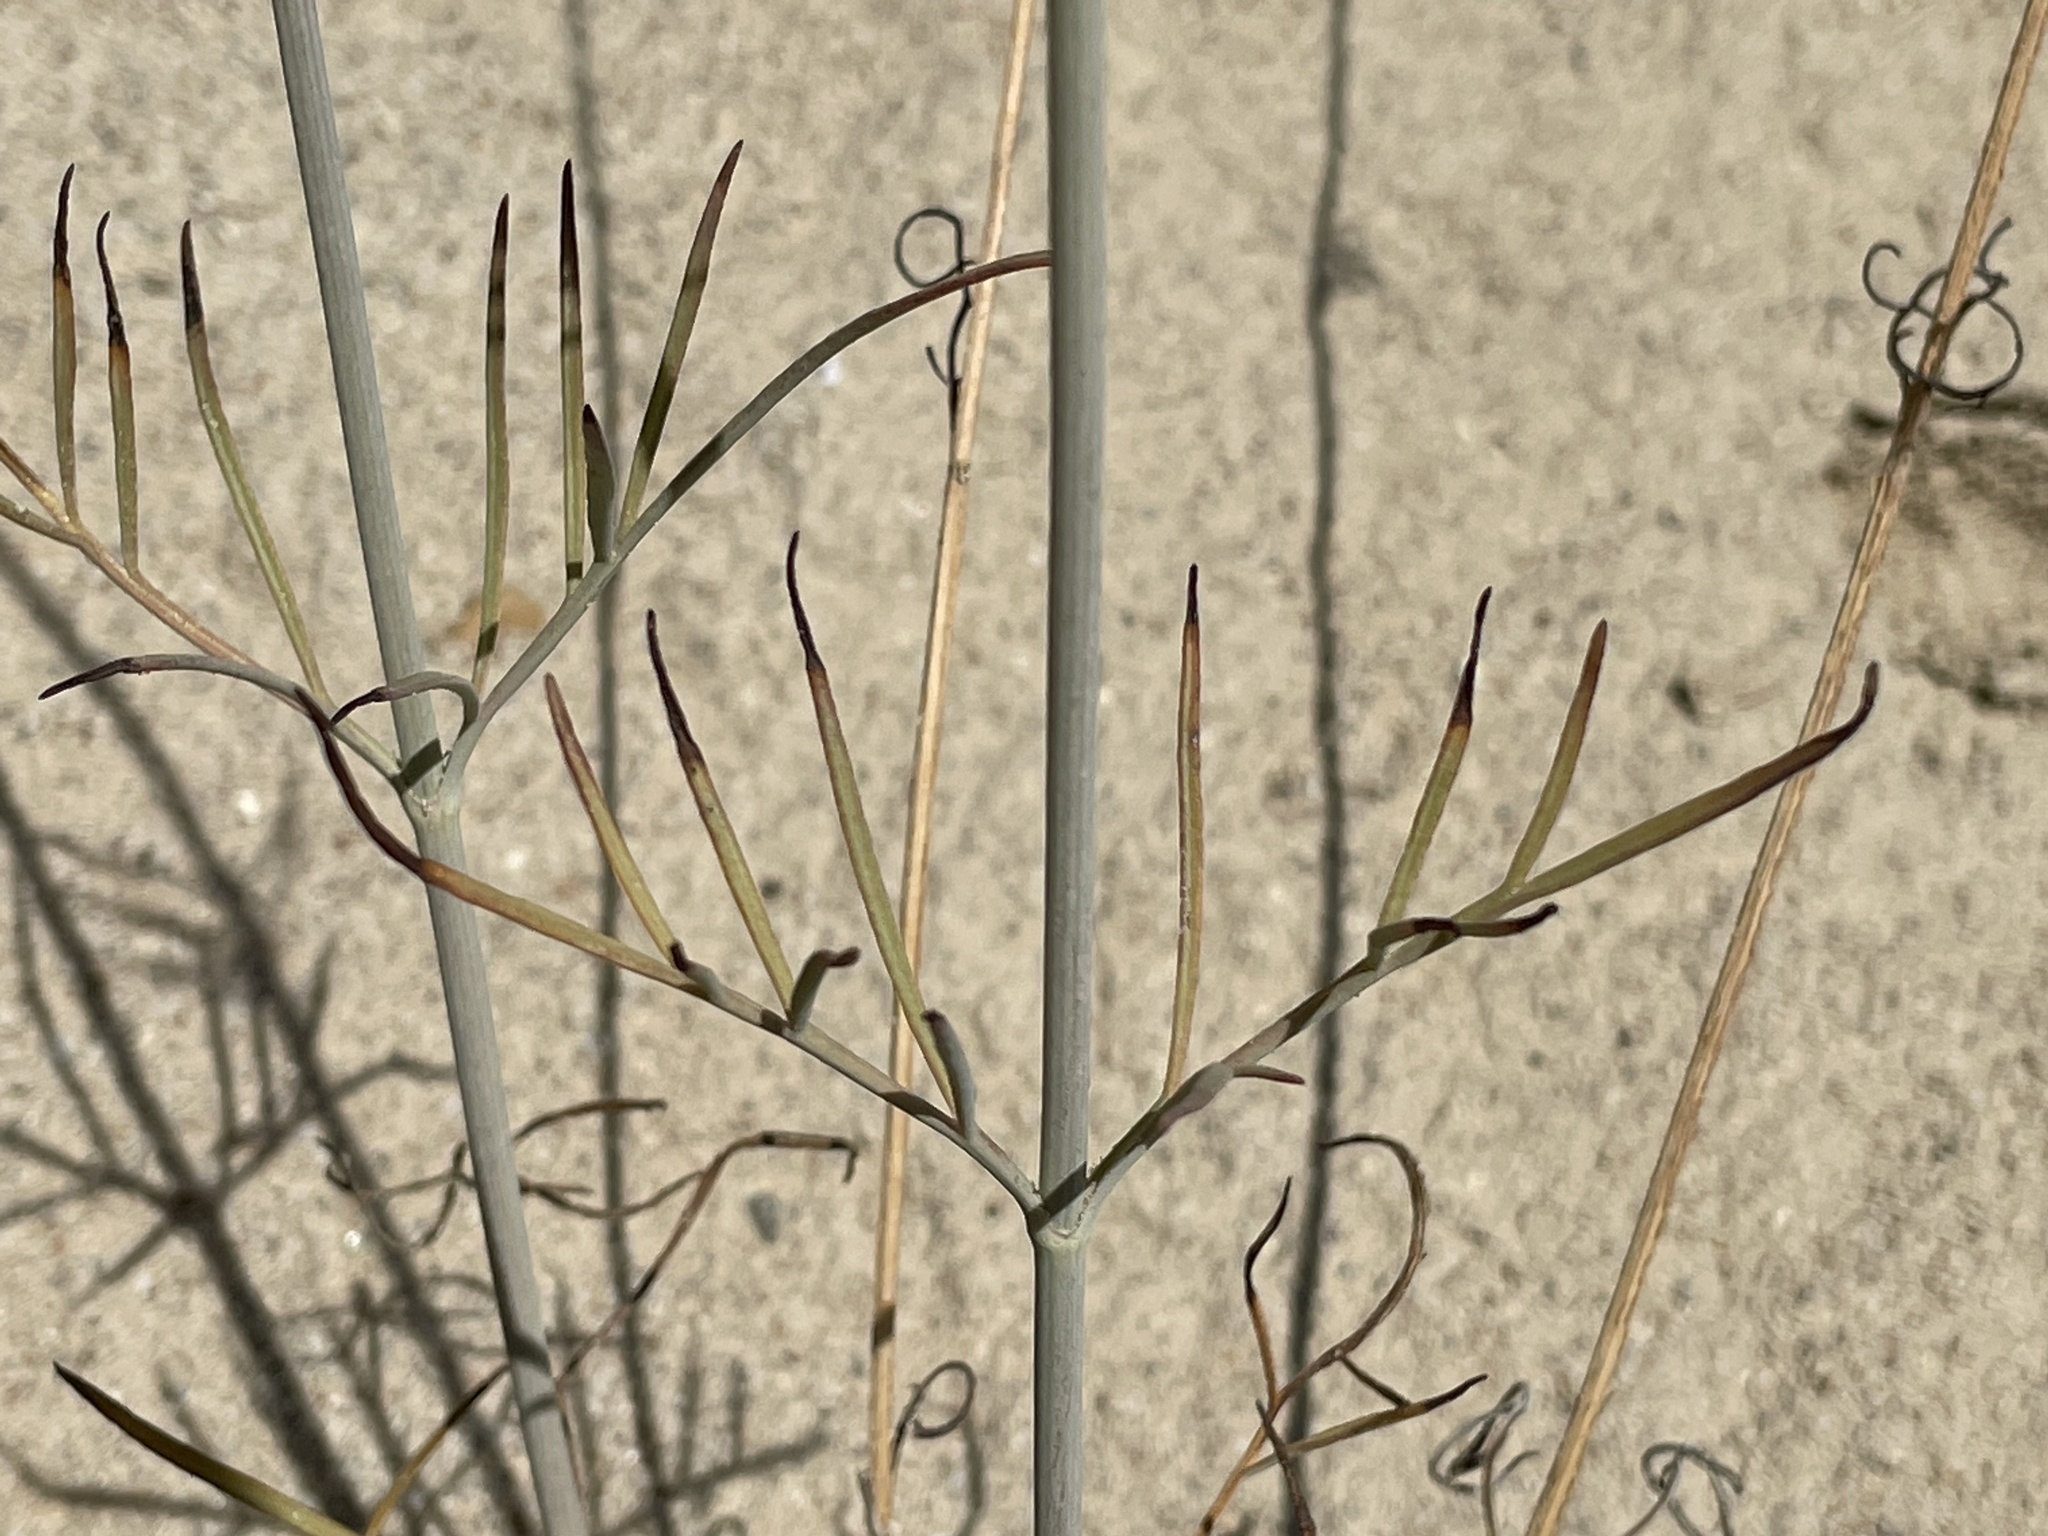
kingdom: Plantae
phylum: Tracheophyta
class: Magnoliopsida
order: Asterales
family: Asteraceae
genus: Thelesperma
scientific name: Thelesperma megapotamicum
